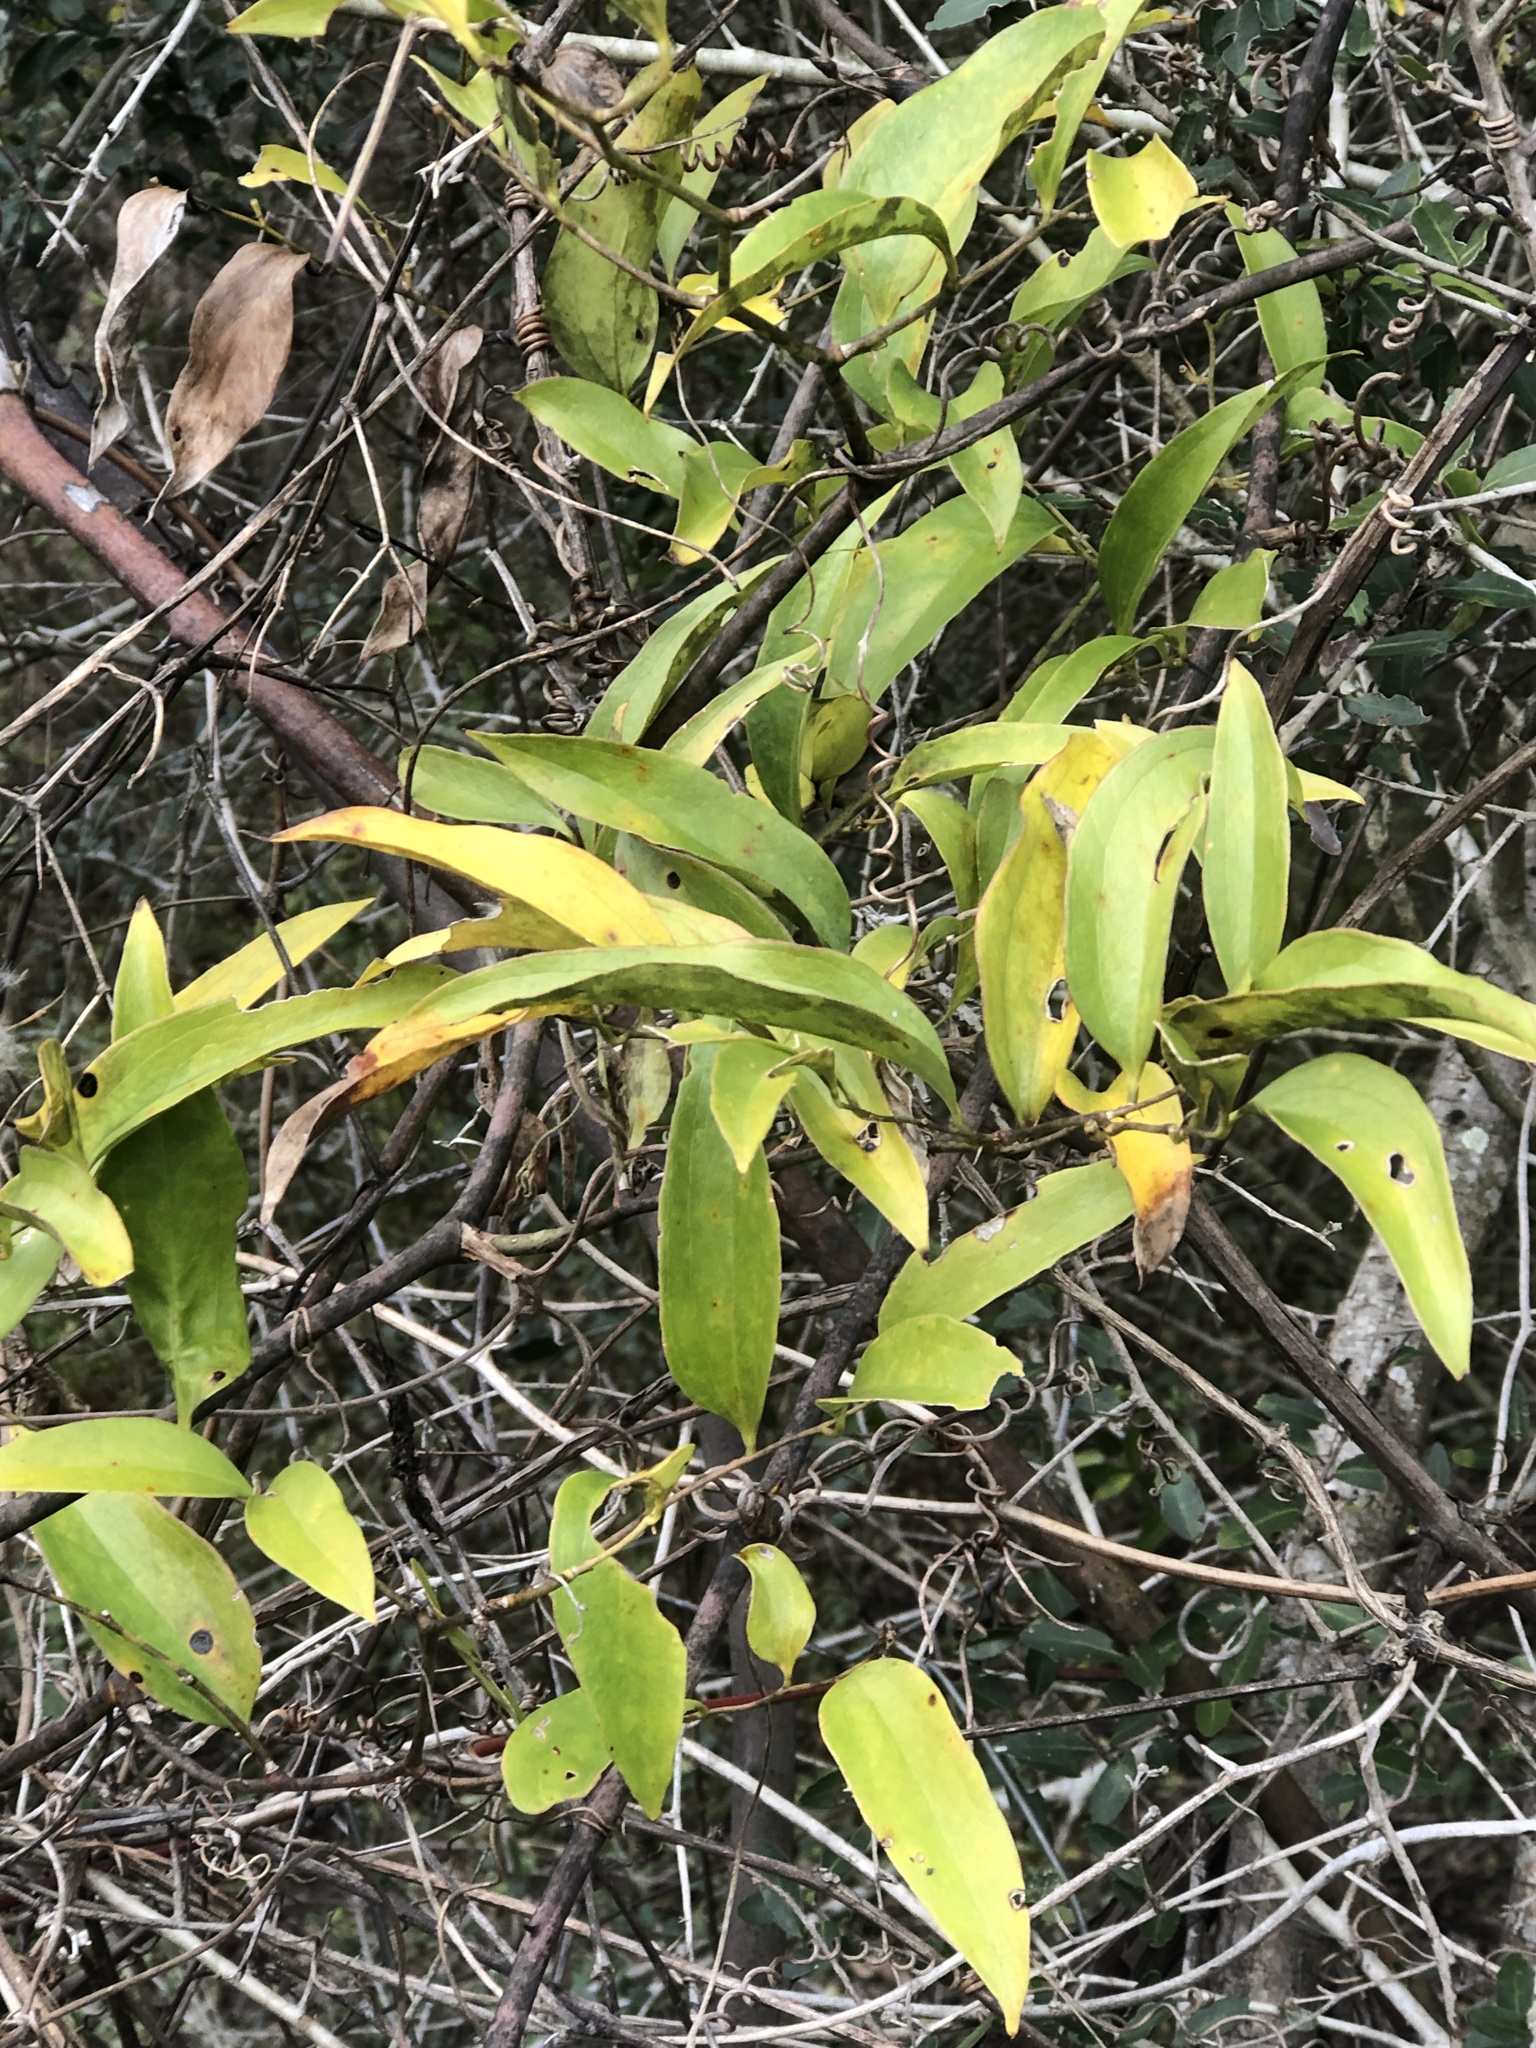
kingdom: Plantae
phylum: Tracheophyta
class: Liliopsida
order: Liliales
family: Smilacaceae
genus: Smilax
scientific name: Smilax maritima
